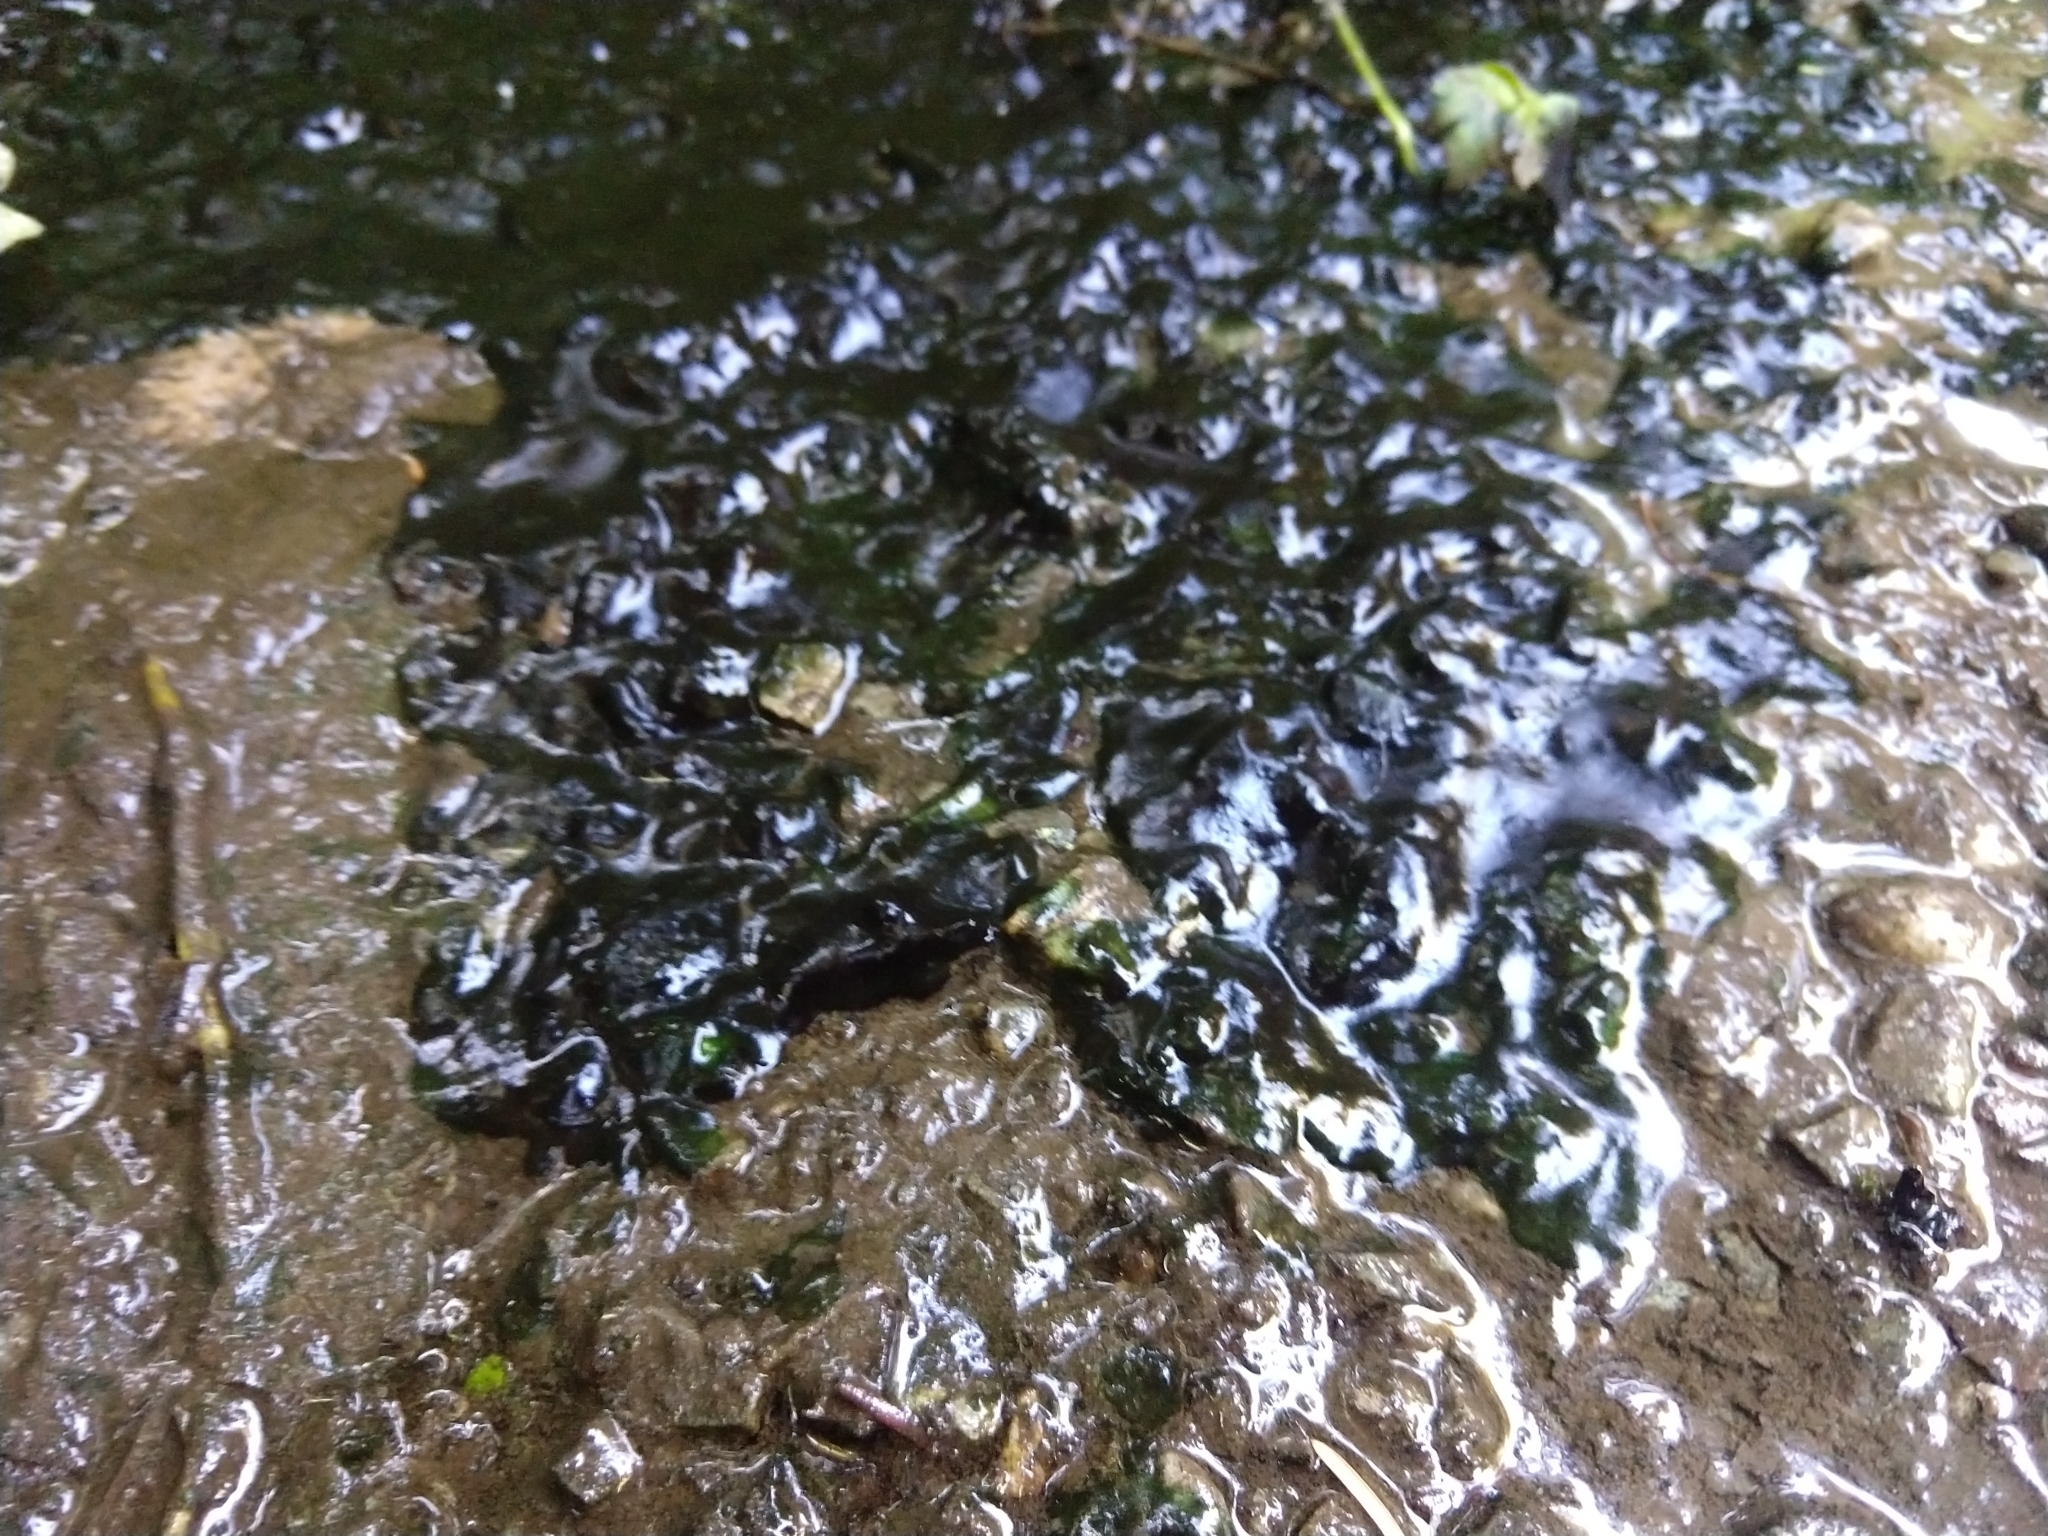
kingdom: Bacteria
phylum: Cyanobacteria
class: Cyanobacteriia
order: Cyanobacteriales
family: Nostocaceae
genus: Nostoc
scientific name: Nostoc commune
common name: Star jelly
